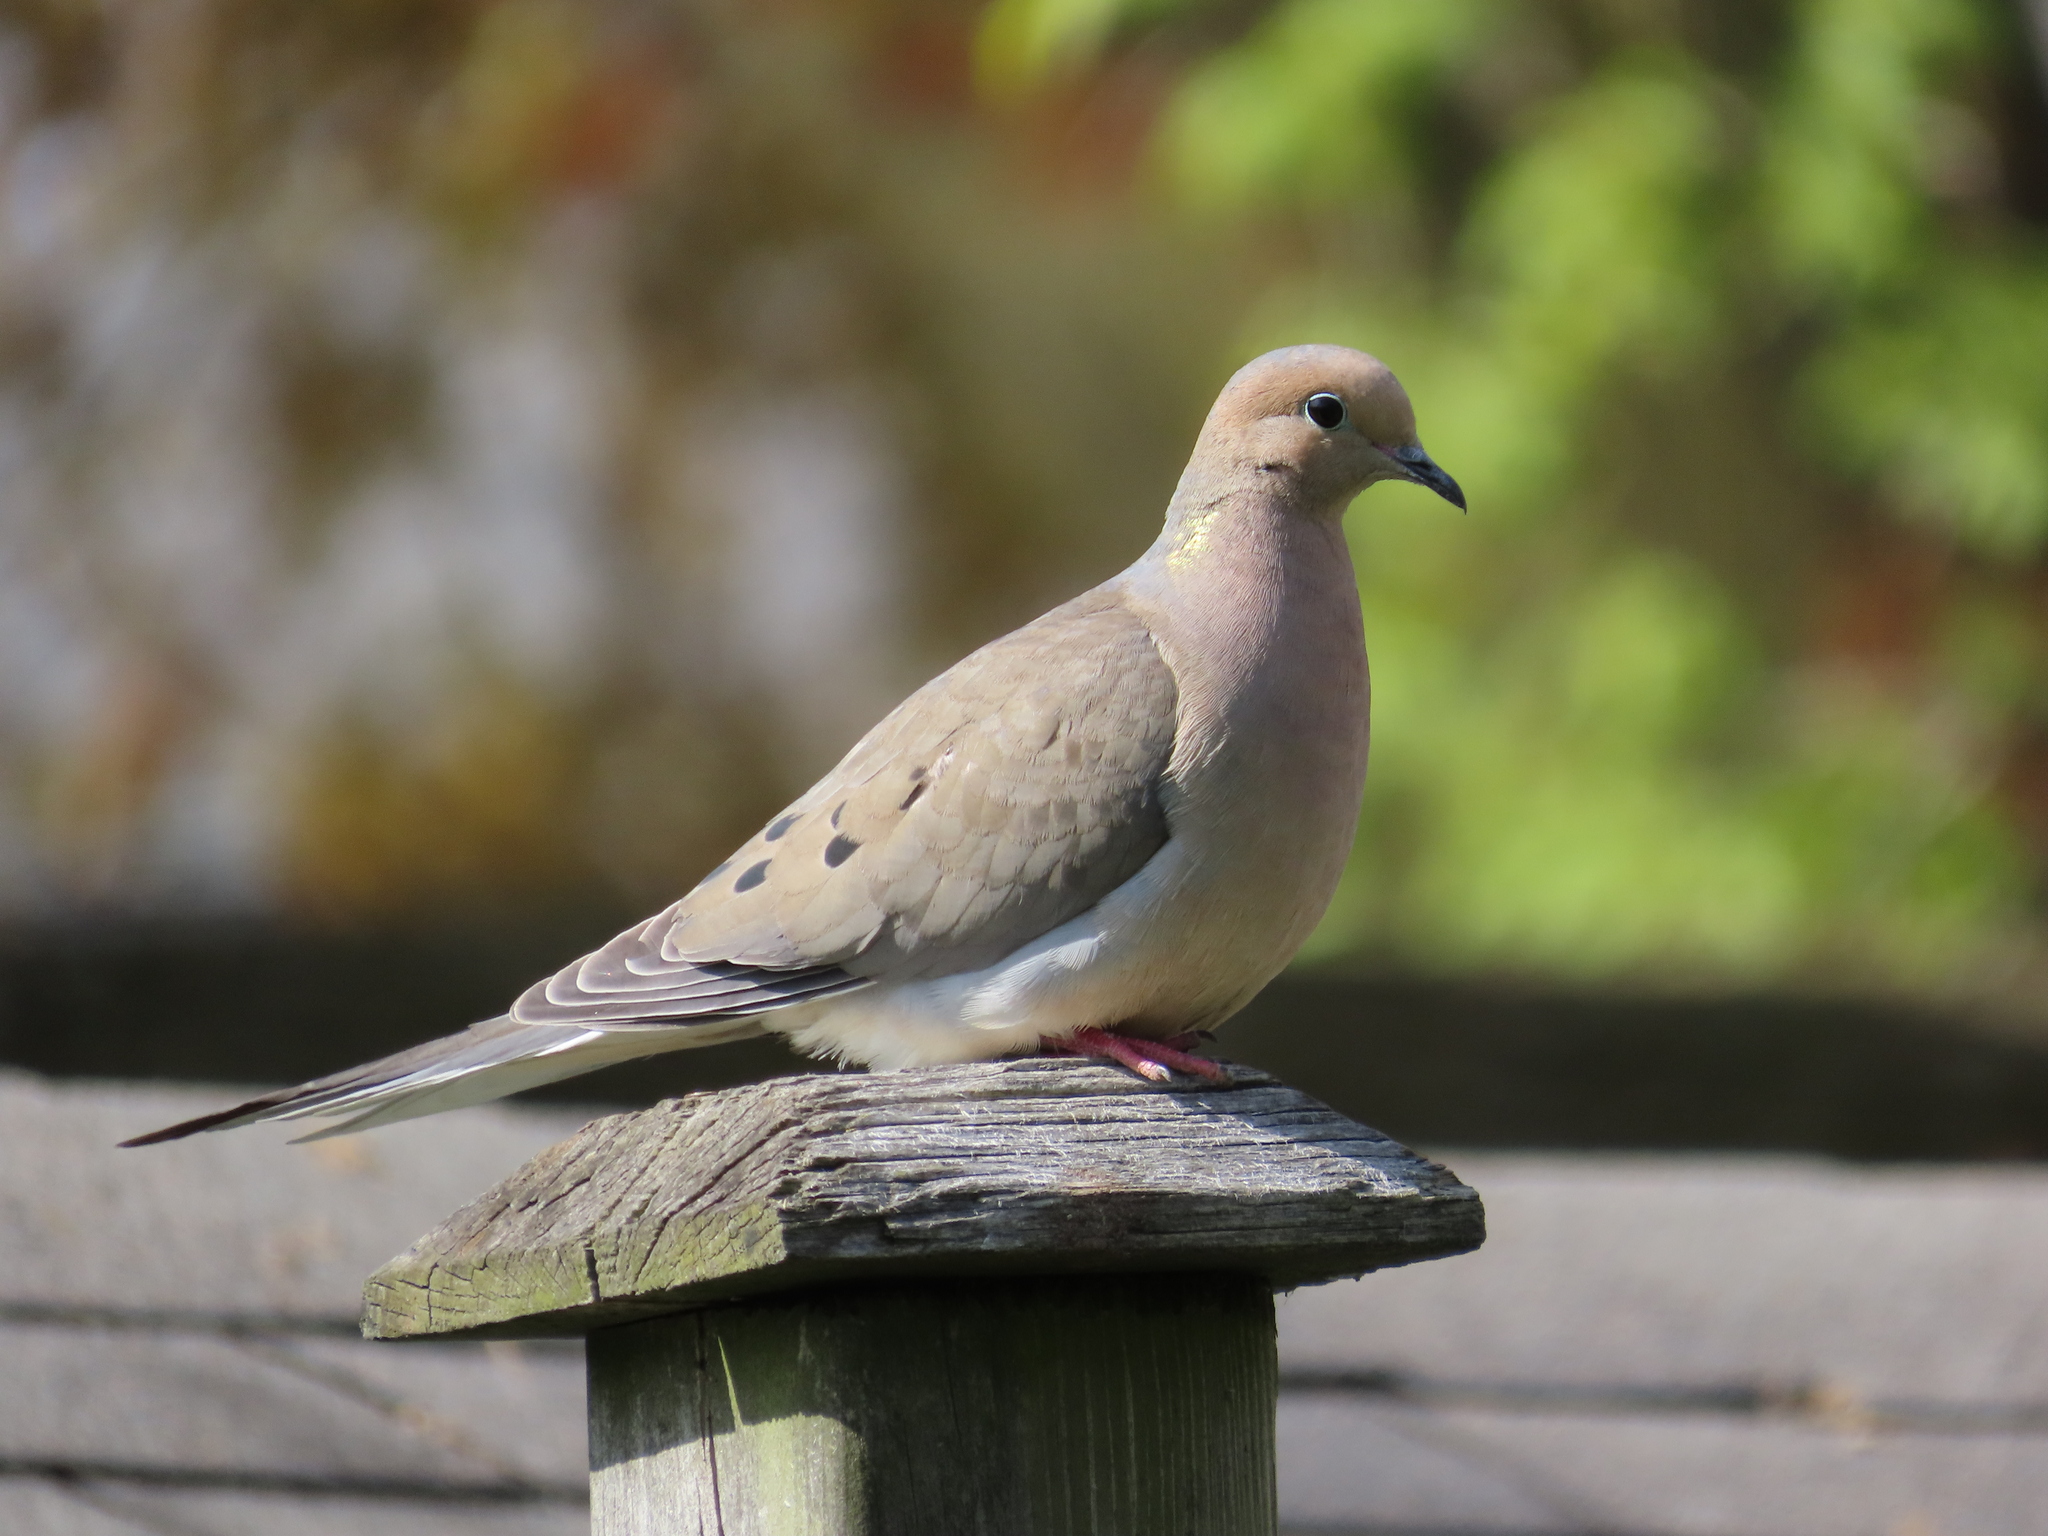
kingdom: Animalia
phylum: Chordata
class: Aves
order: Columbiformes
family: Columbidae
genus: Zenaida
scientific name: Zenaida macroura
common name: Mourning dove
